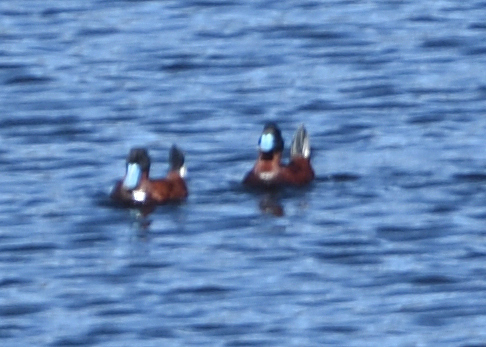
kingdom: Animalia
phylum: Chordata
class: Aves
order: Anseriformes
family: Anatidae
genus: Oxyura
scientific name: Oxyura ferruginea
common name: Andean duck
